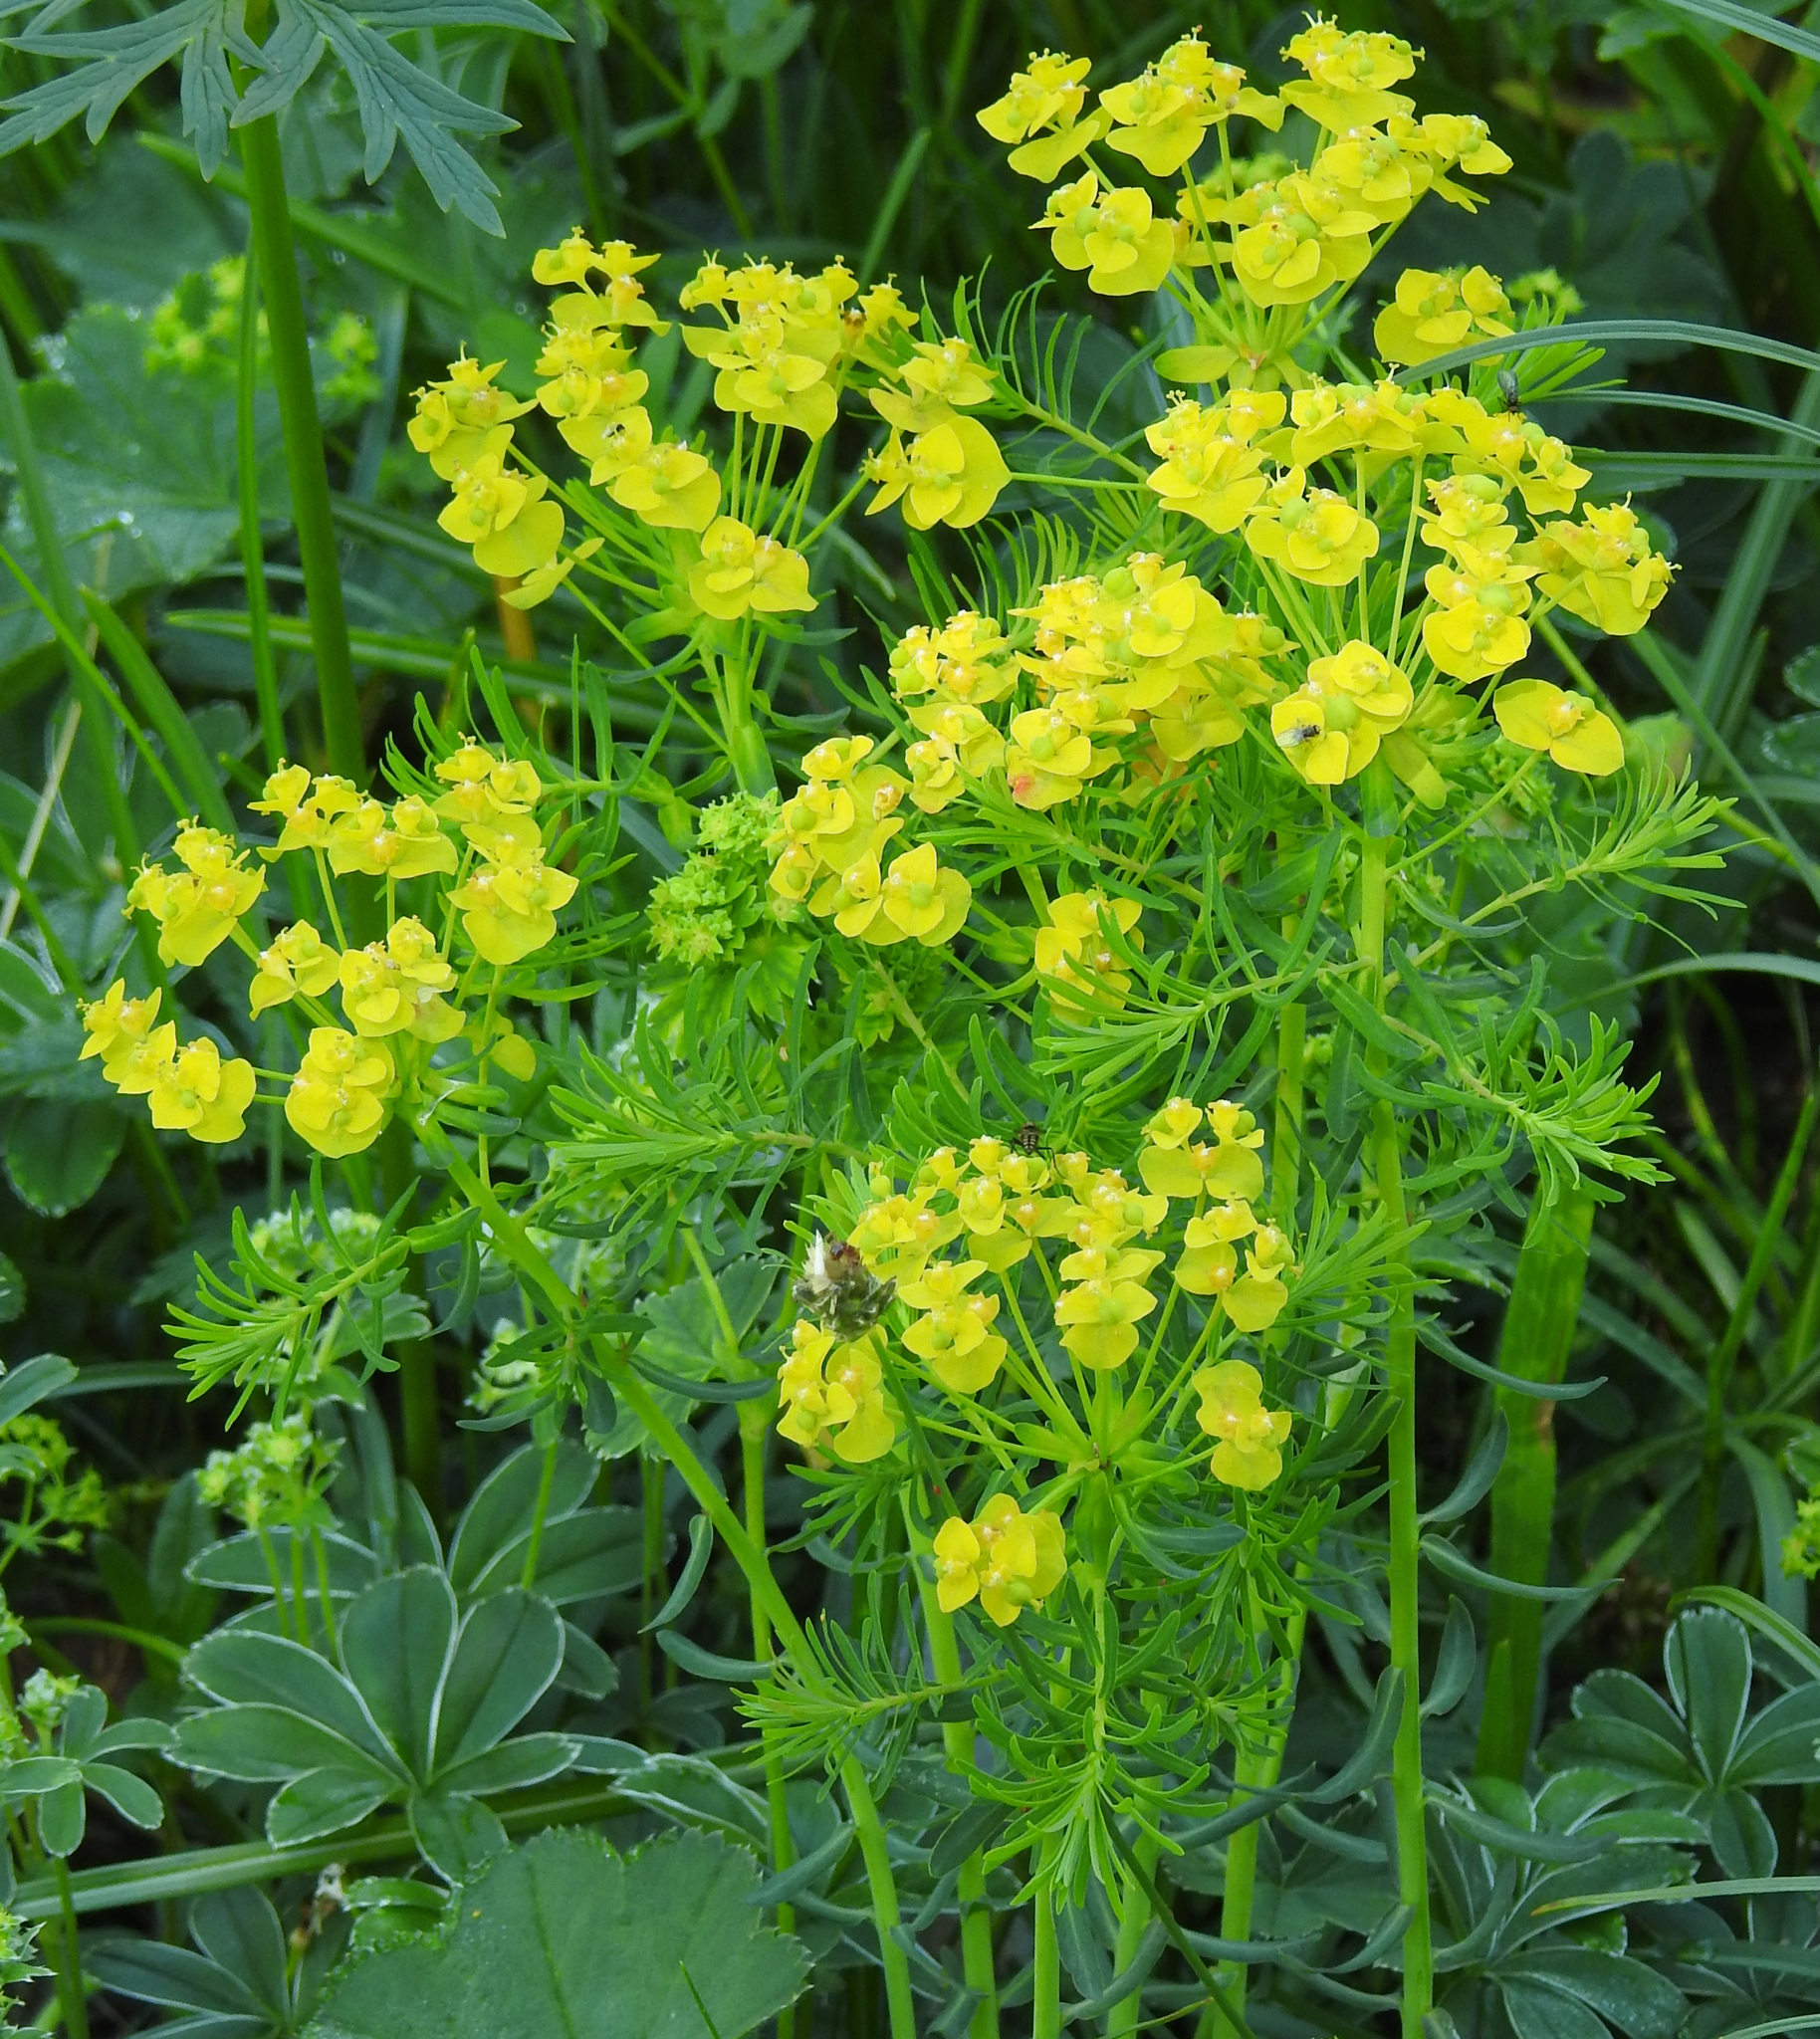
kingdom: Plantae
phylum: Tracheophyta
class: Magnoliopsida
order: Malpighiales
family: Euphorbiaceae
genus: Euphorbia
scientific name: Euphorbia cyparissias
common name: Cypress spurge
